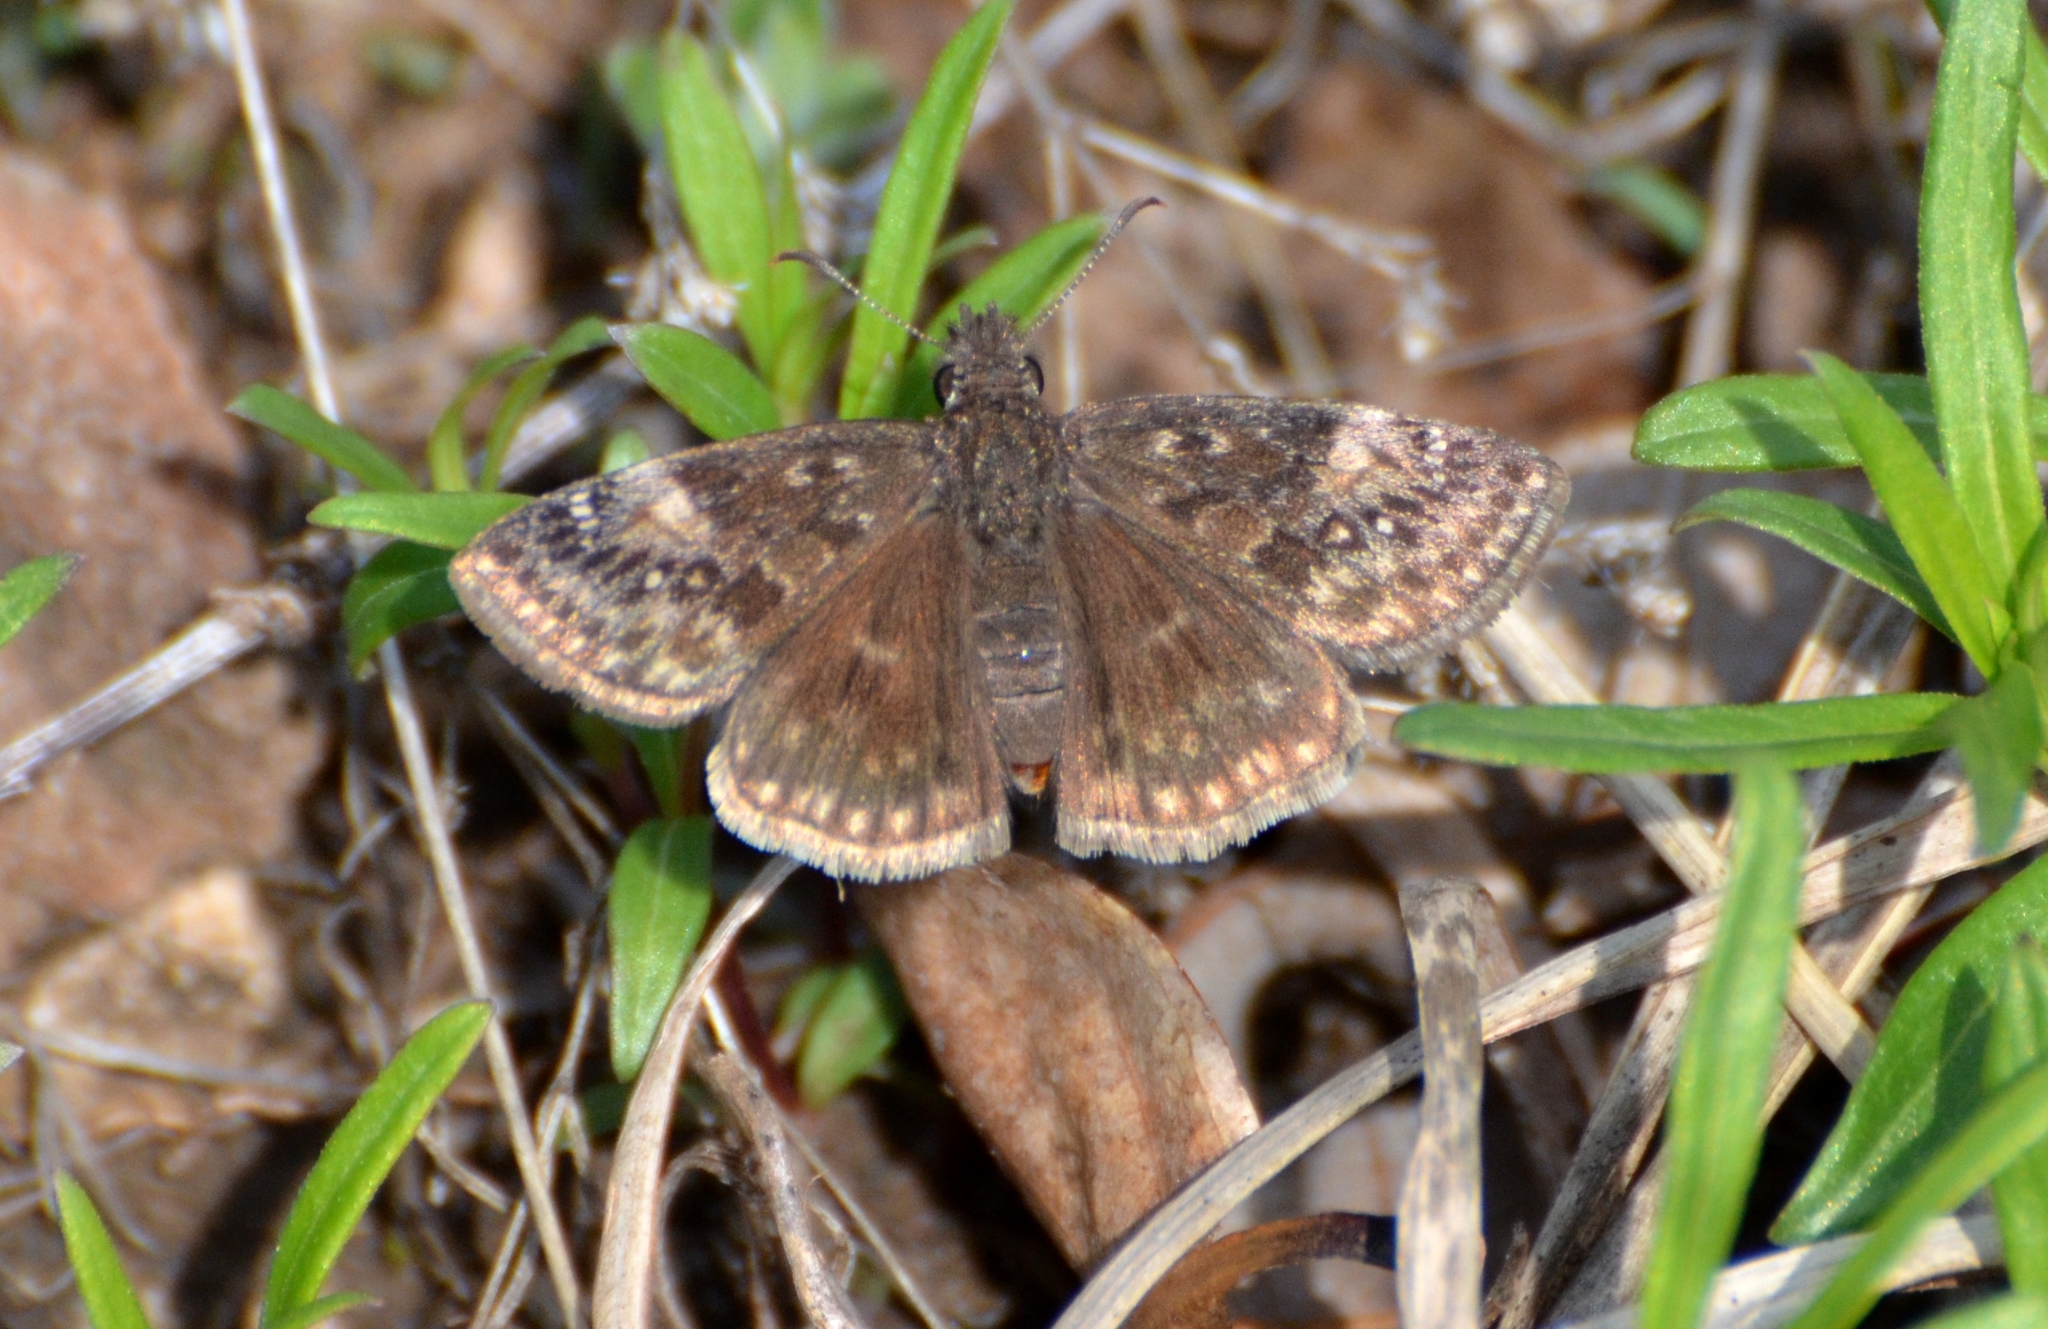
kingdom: Animalia
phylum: Arthropoda
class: Insecta
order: Lepidoptera
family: Hesperiidae
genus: Erynnis
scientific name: Erynnis baptisiae
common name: Wild indigo duskywing
